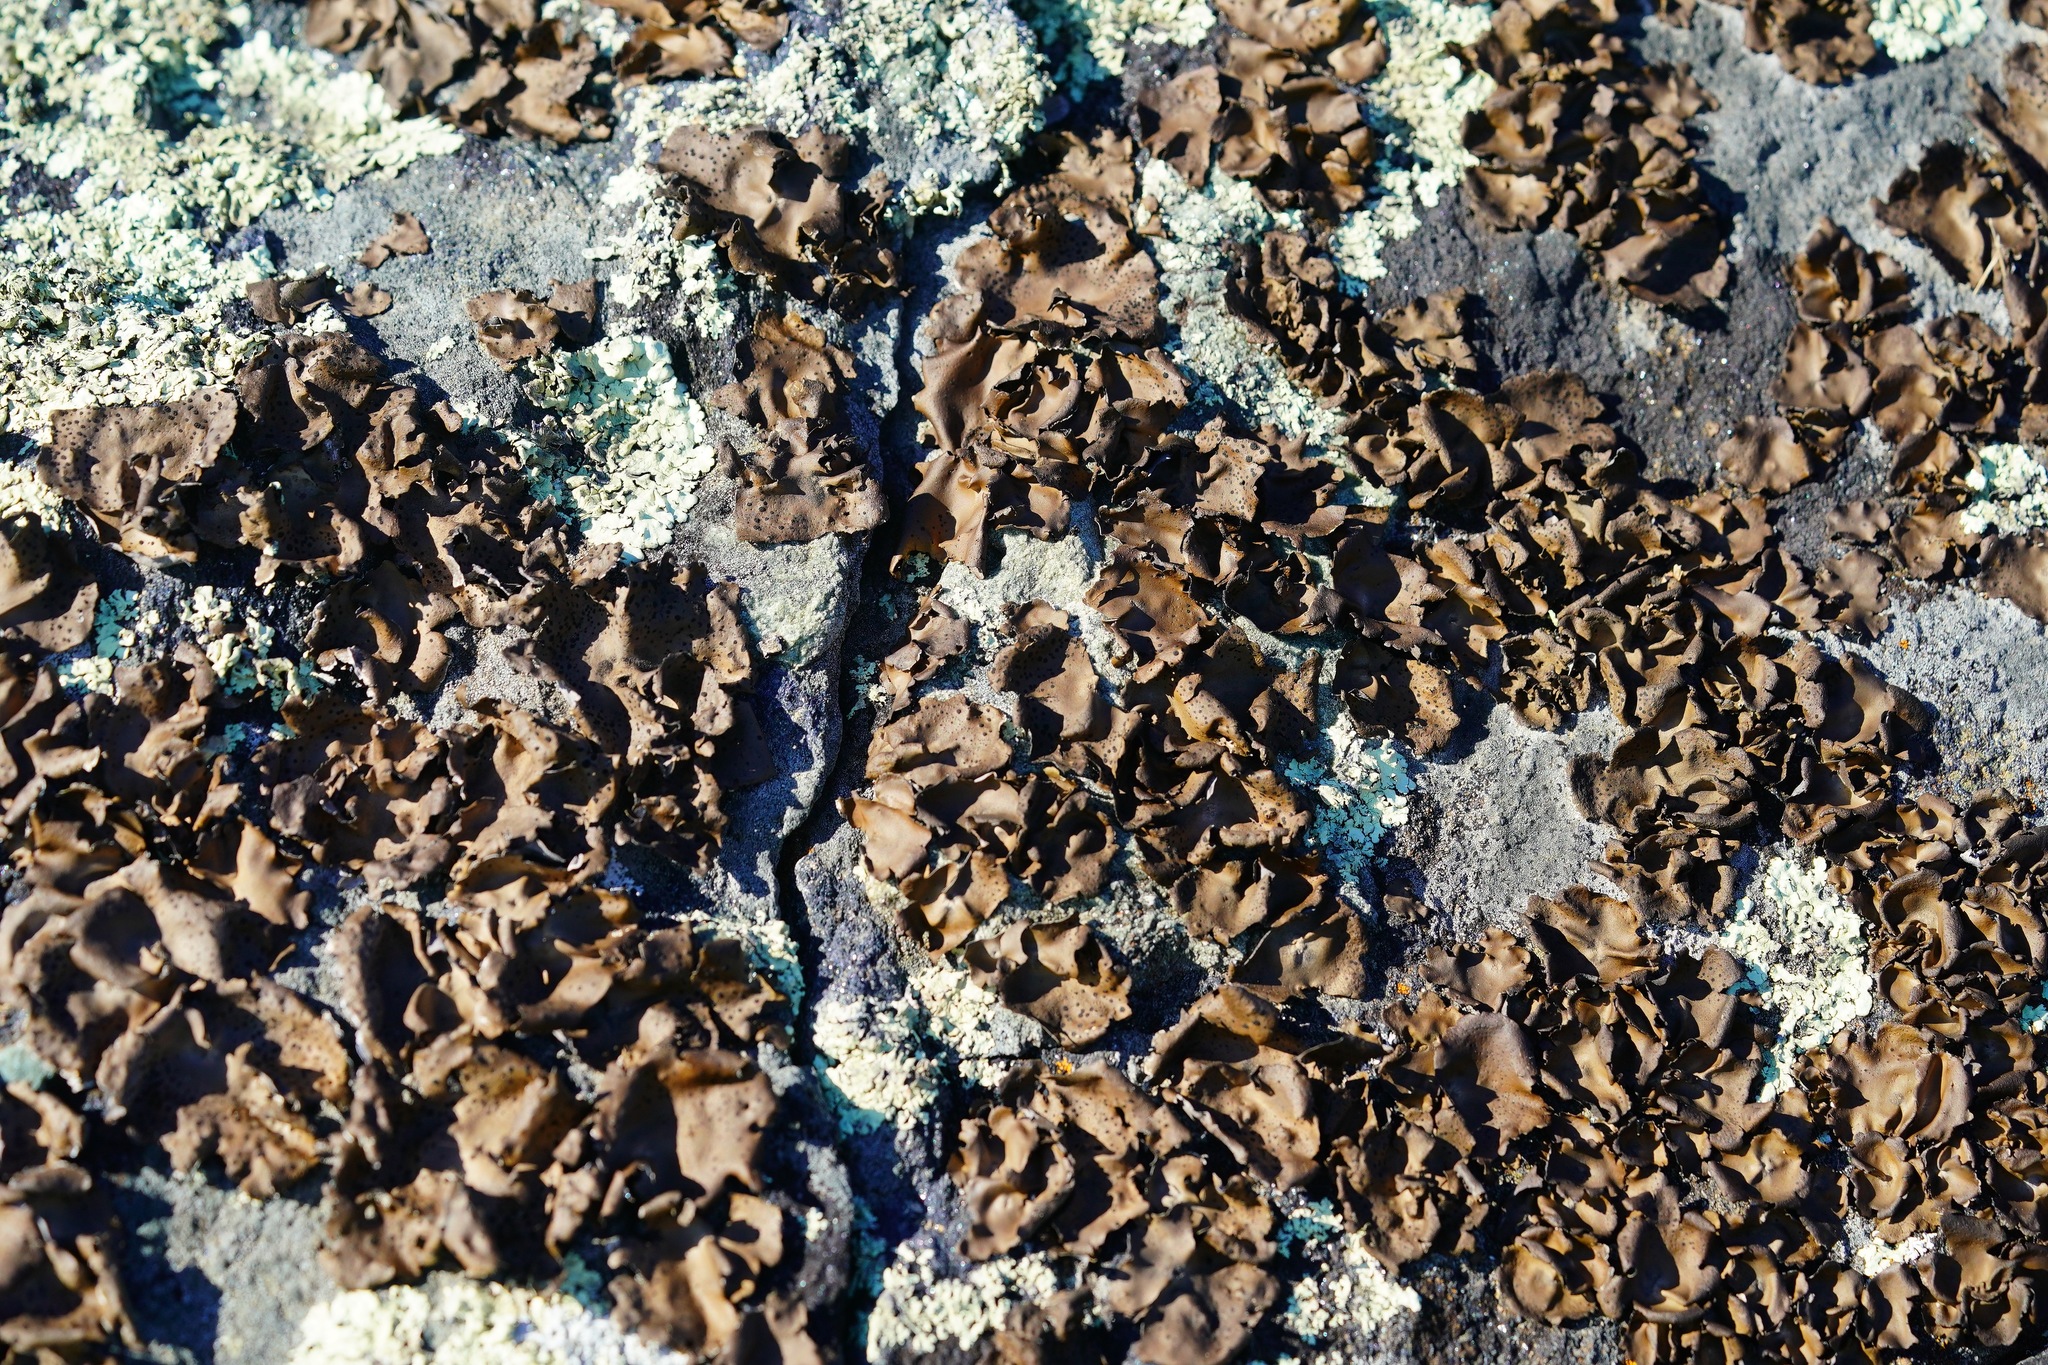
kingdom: Fungi
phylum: Ascomycota
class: Lecanoromycetes
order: Umbilicariales
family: Umbilicariaceae
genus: Umbilicaria
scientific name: Umbilicaria phaea
